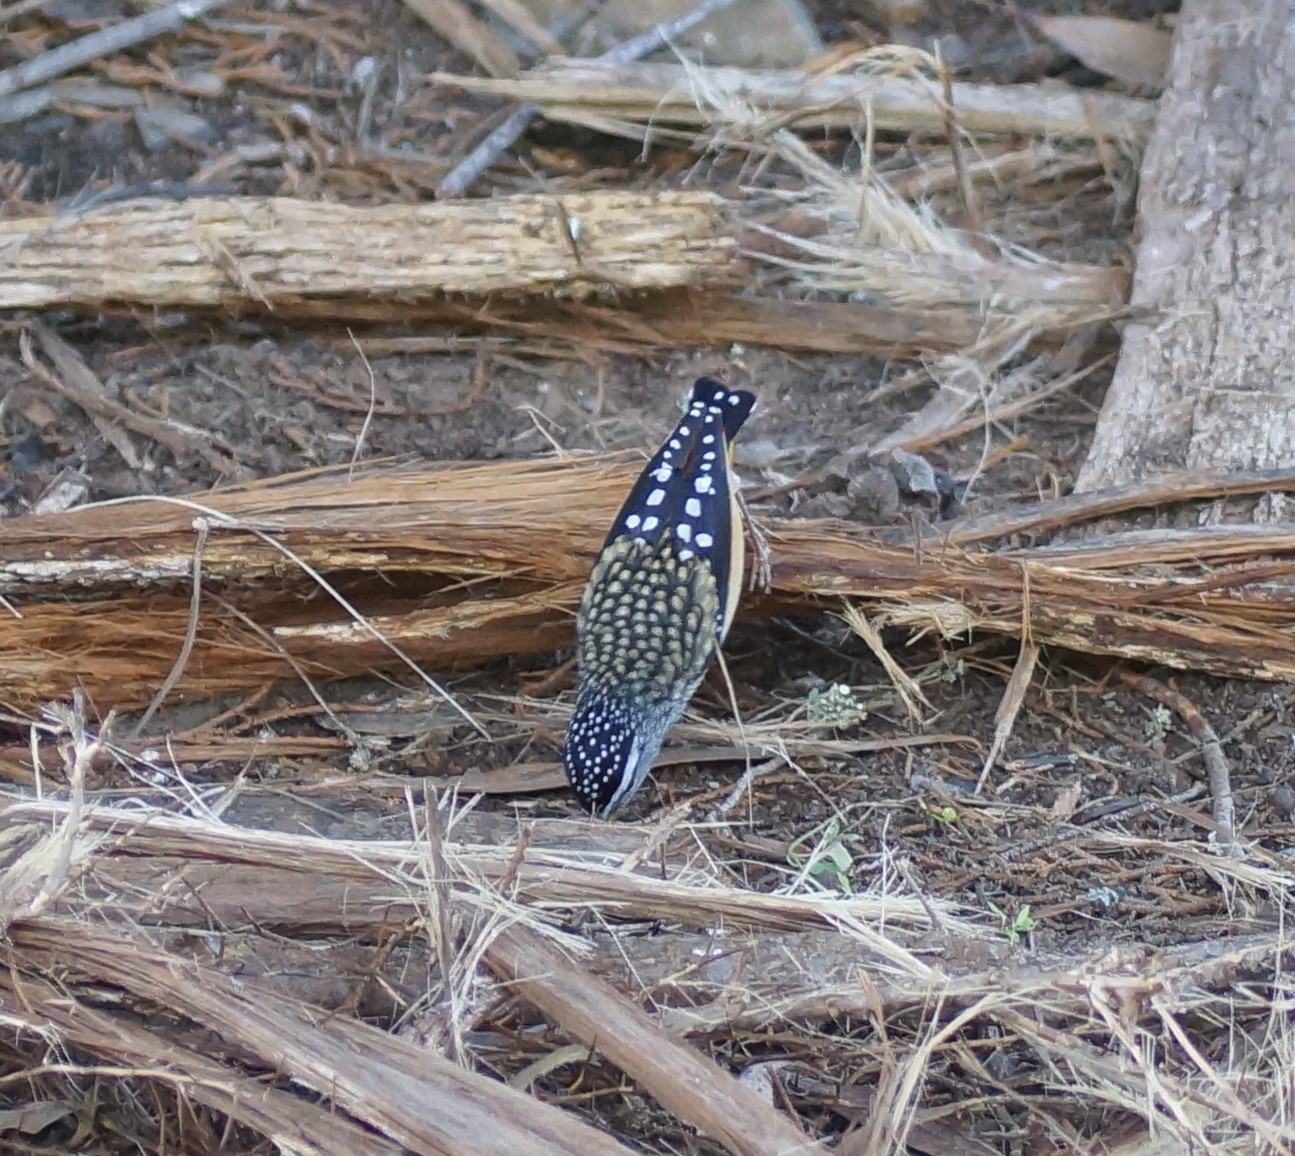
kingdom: Animalia
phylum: Chordata
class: Aves
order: Passeriformes
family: Pardalotidae
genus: Pardalotus
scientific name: Pardalotus punctatus
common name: Spotted pardalote
